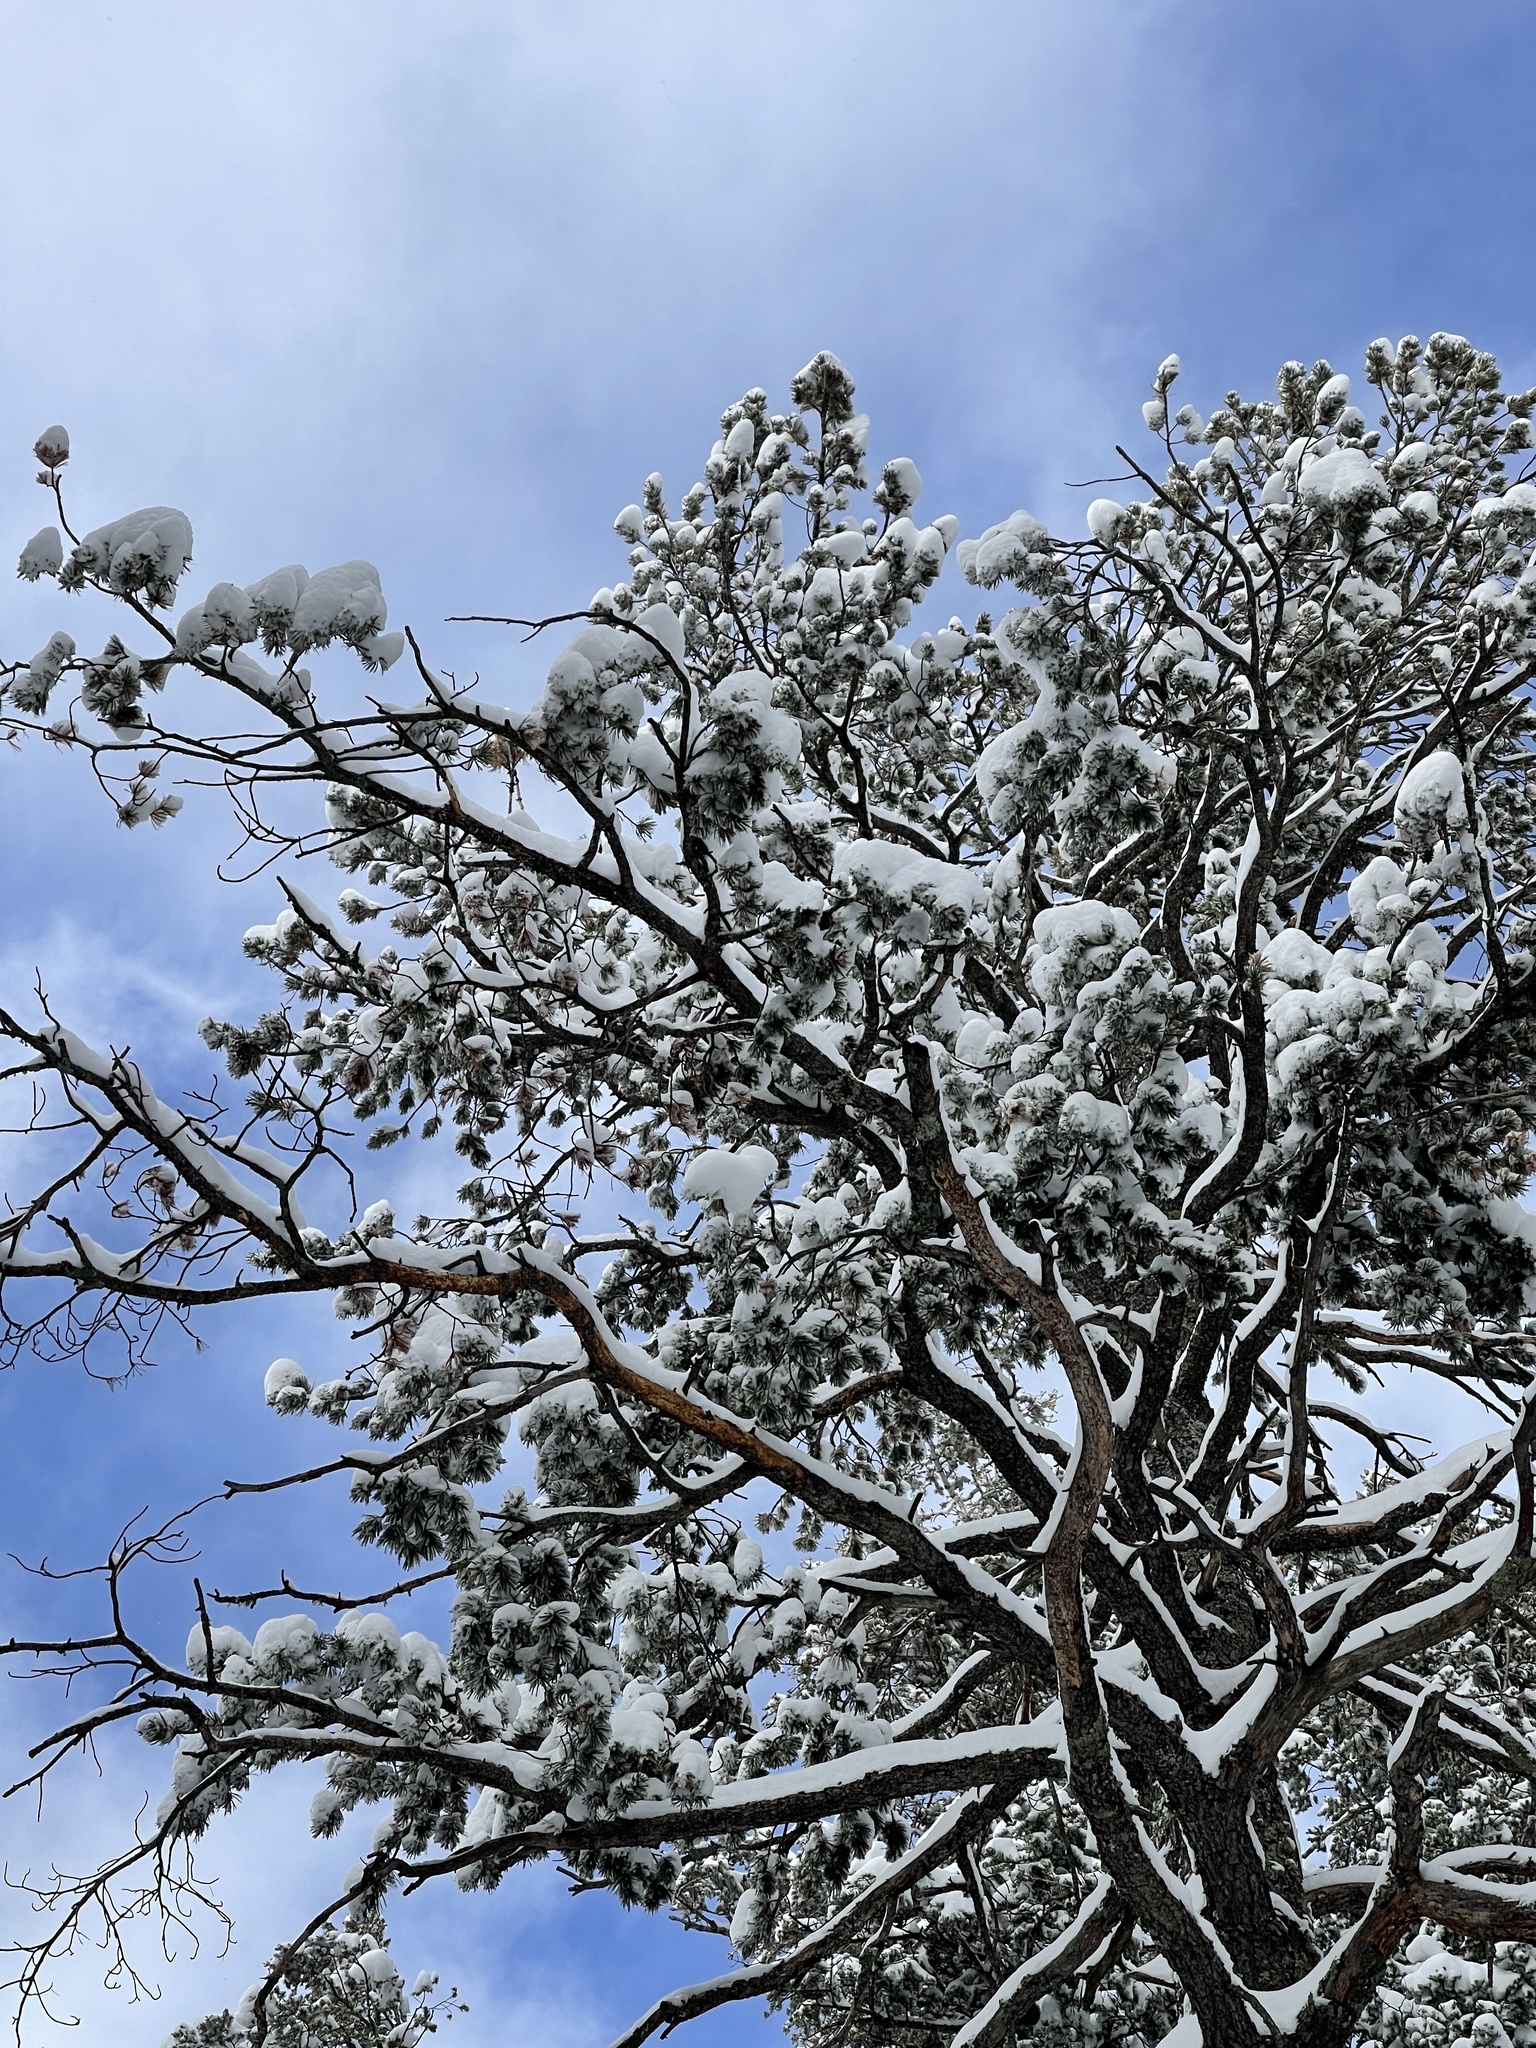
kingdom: Plantae
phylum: Tracheophyta
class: Pinopsida
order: Pinales
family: Pinaceae
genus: Pinus
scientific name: Pinus strobiformis
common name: Southwestern white pine
